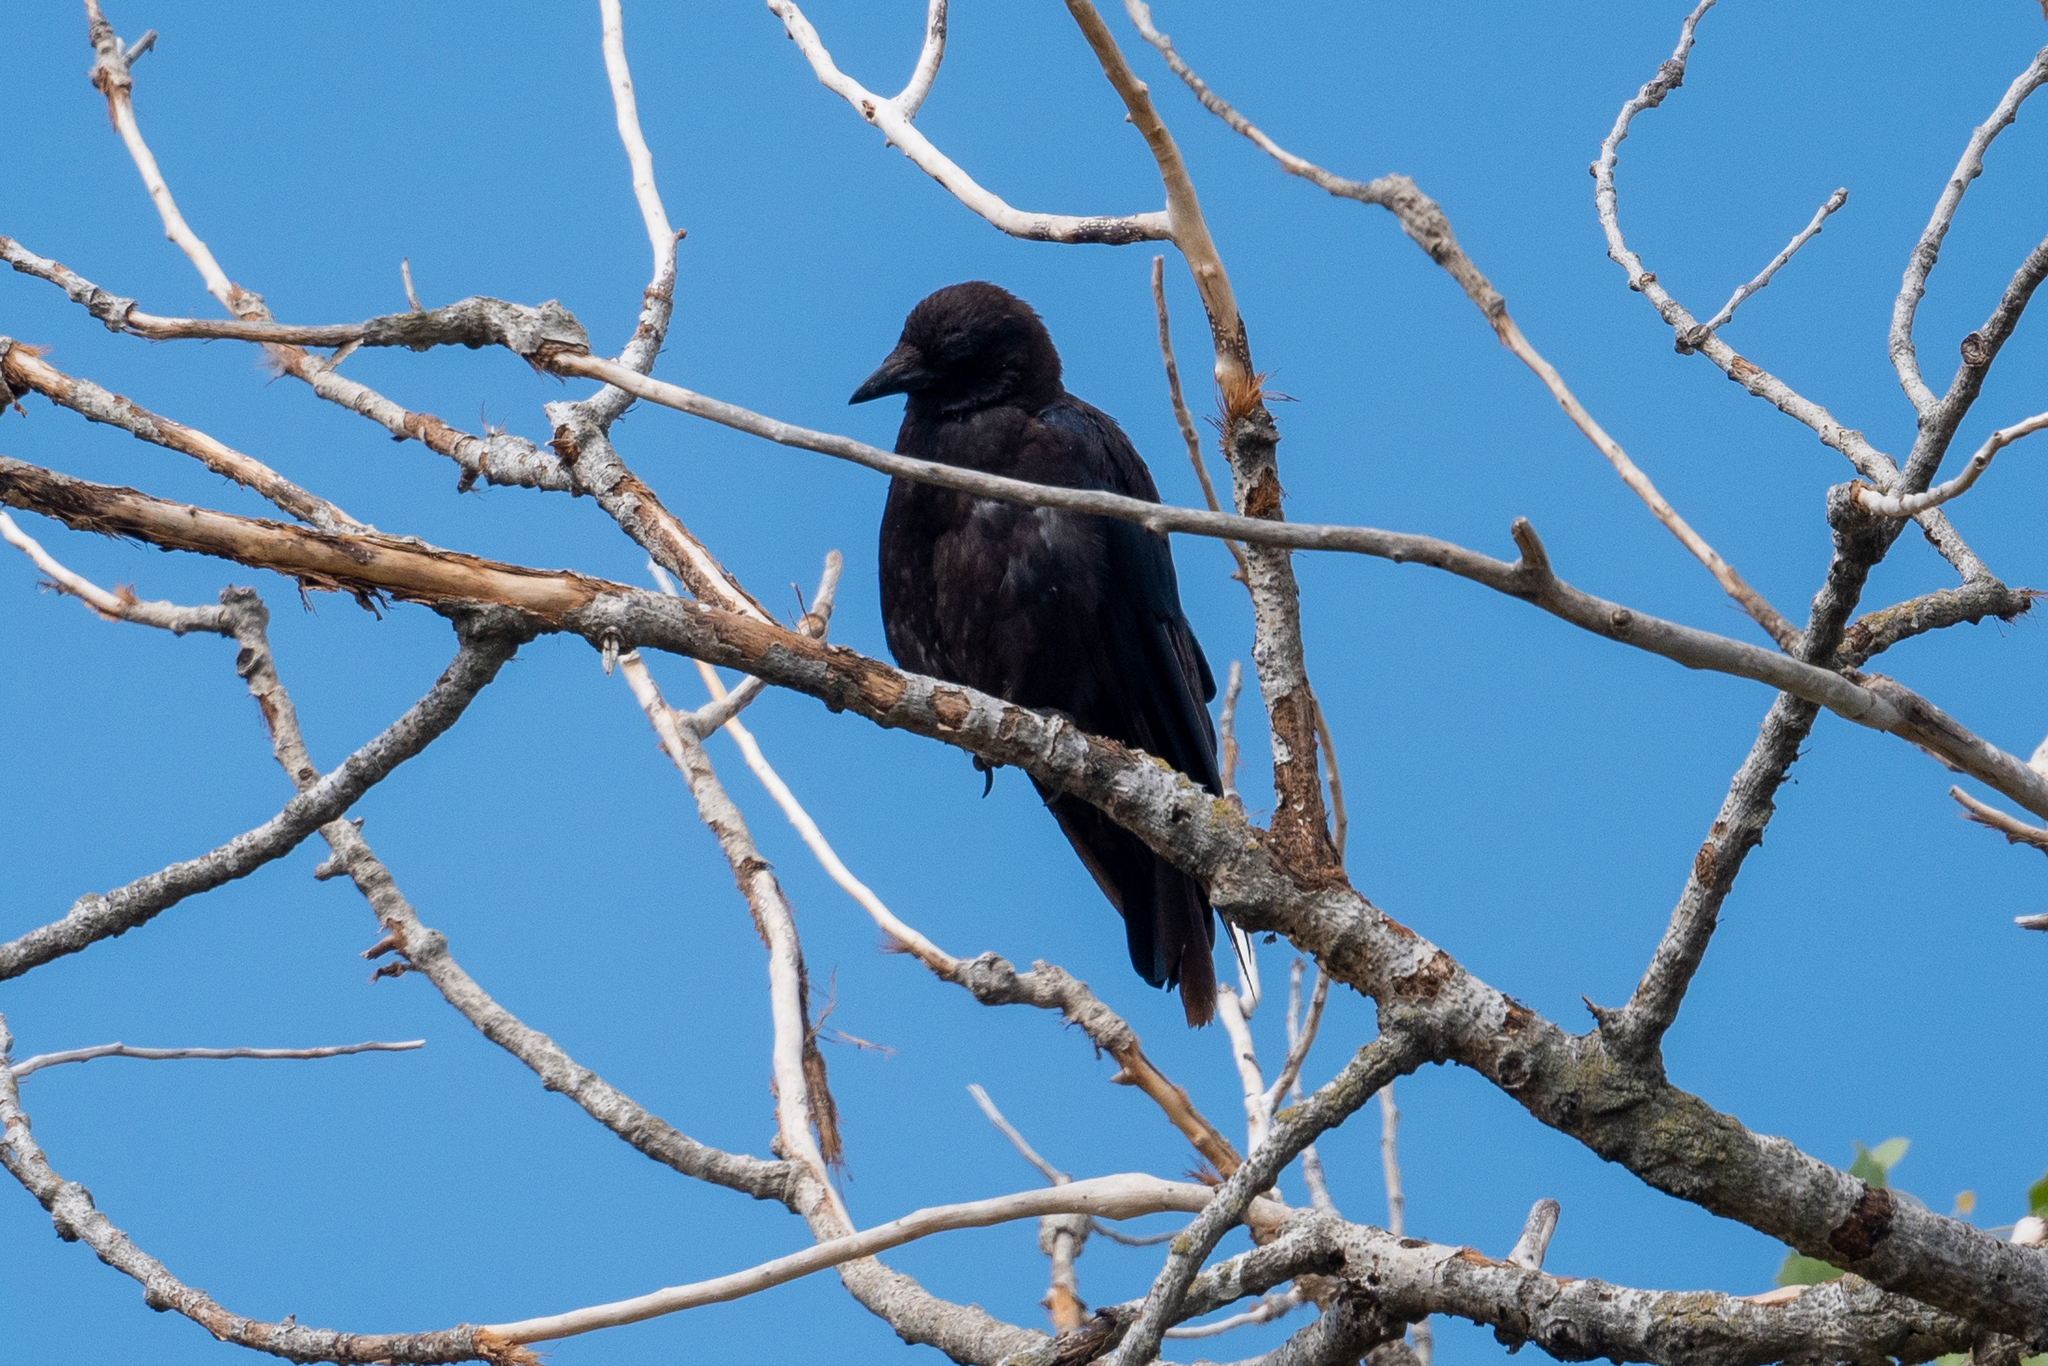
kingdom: Animalia
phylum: Chordata
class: Aves
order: Passeriformes
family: Corvidae
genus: Corvus
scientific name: Corvus brachyrhynchos
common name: American crow
